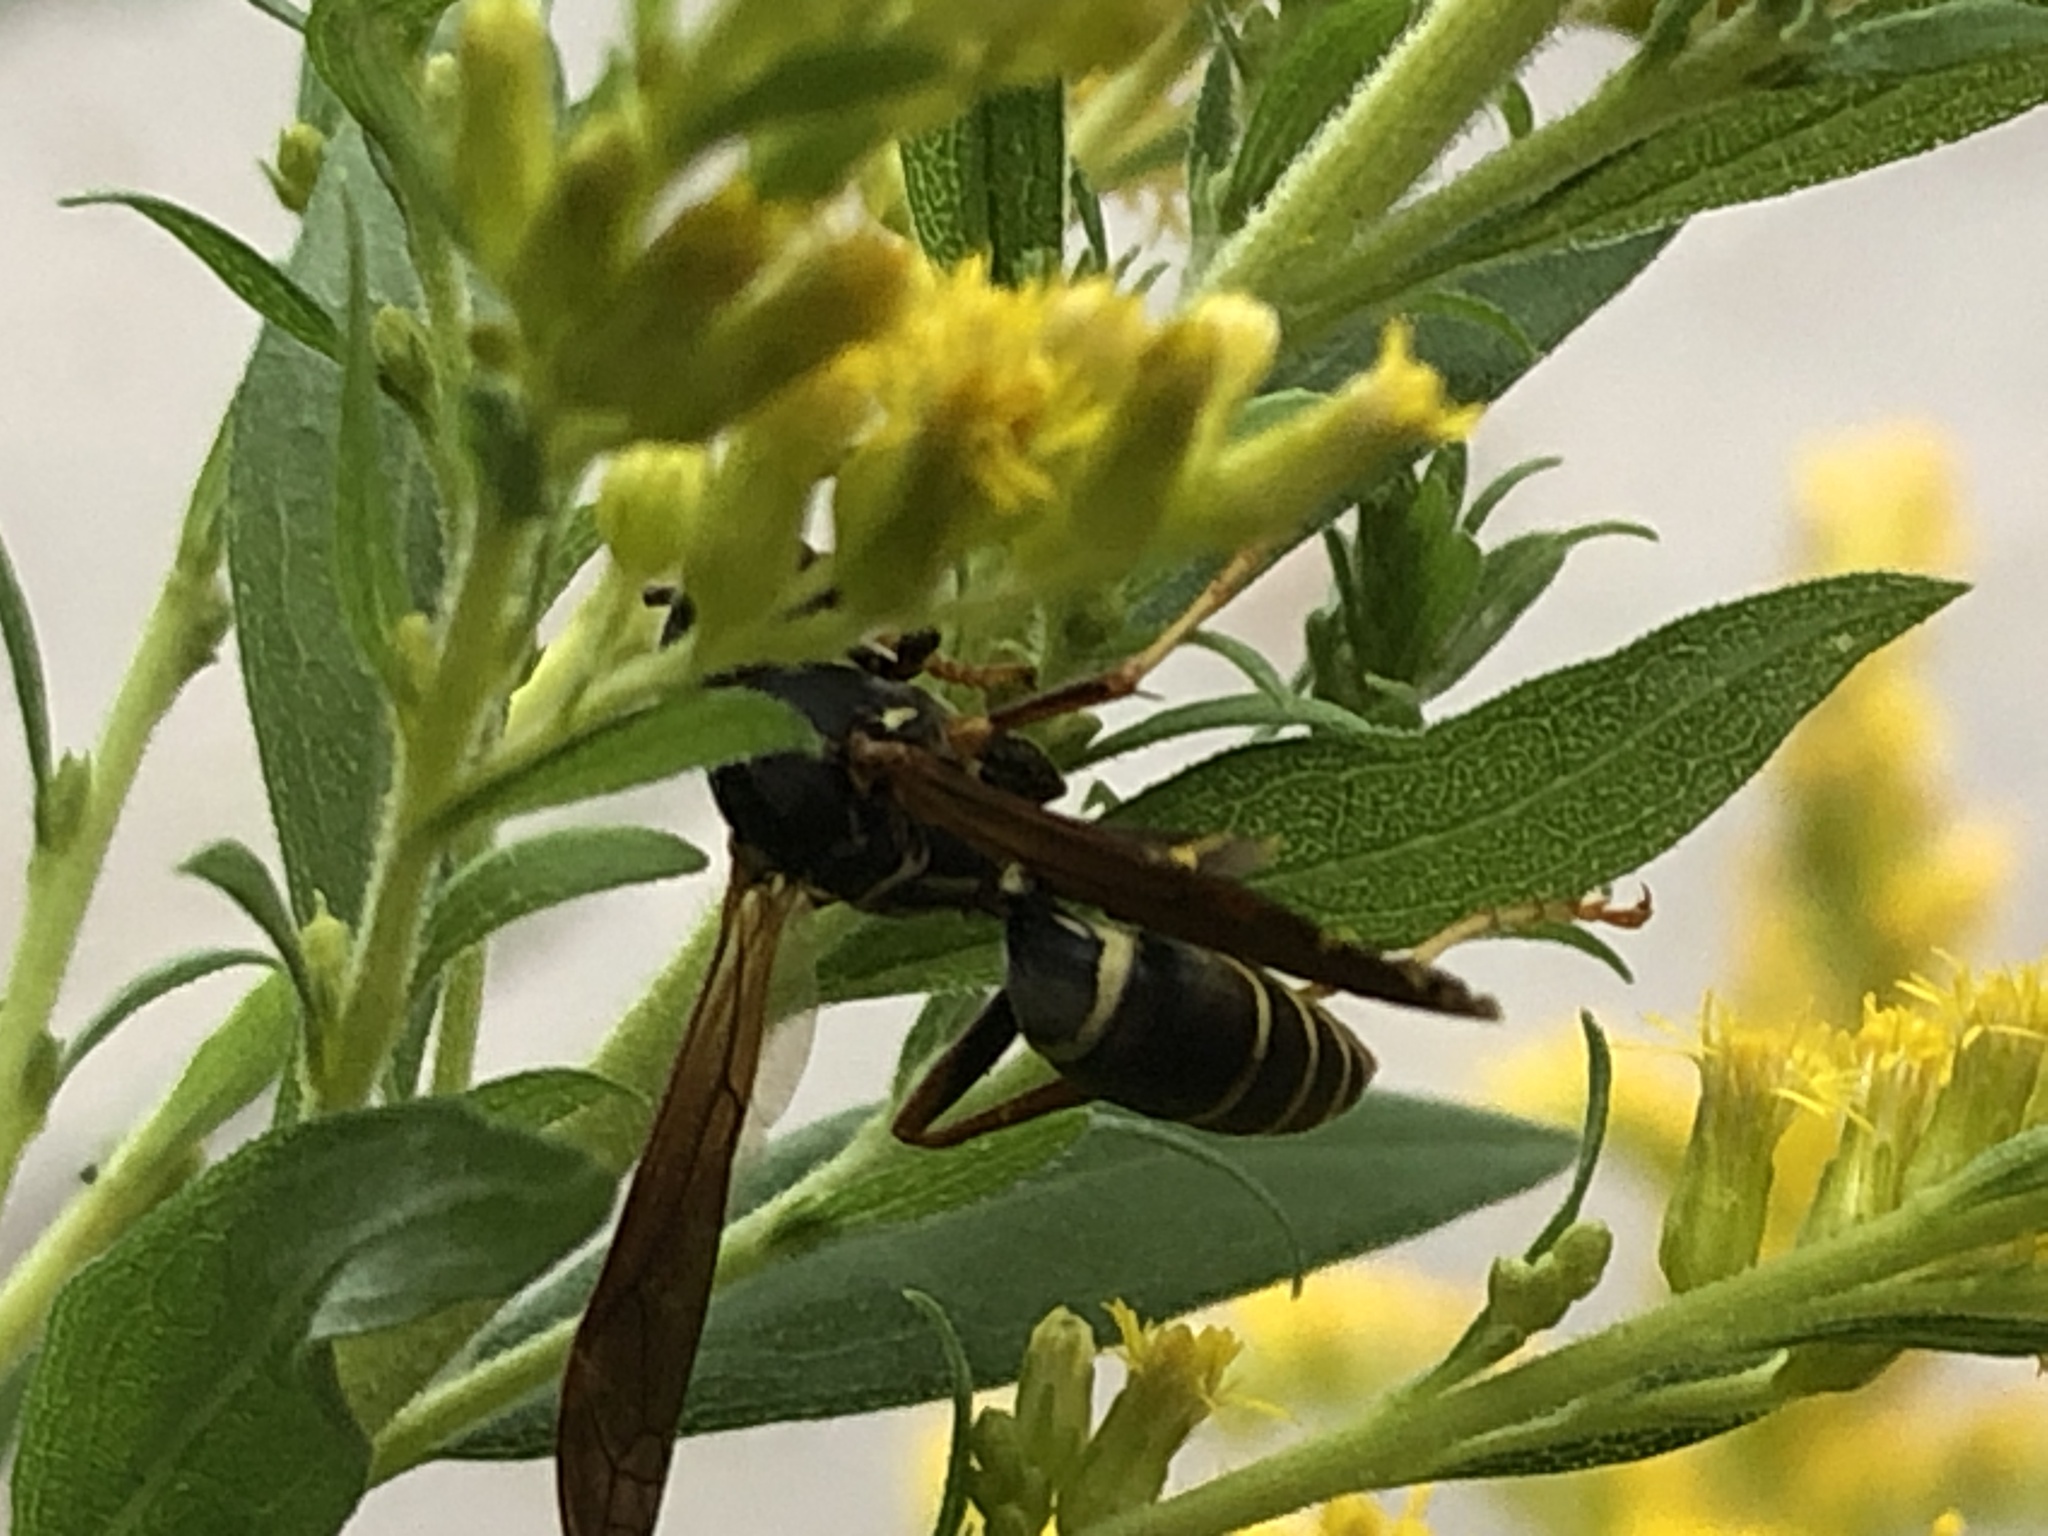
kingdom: Animalia
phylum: Arthropoda
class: Insecta
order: Hymenoptera
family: Eumenidae
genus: Polistes
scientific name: Polistes fuscatus
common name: Dark paper wasp
